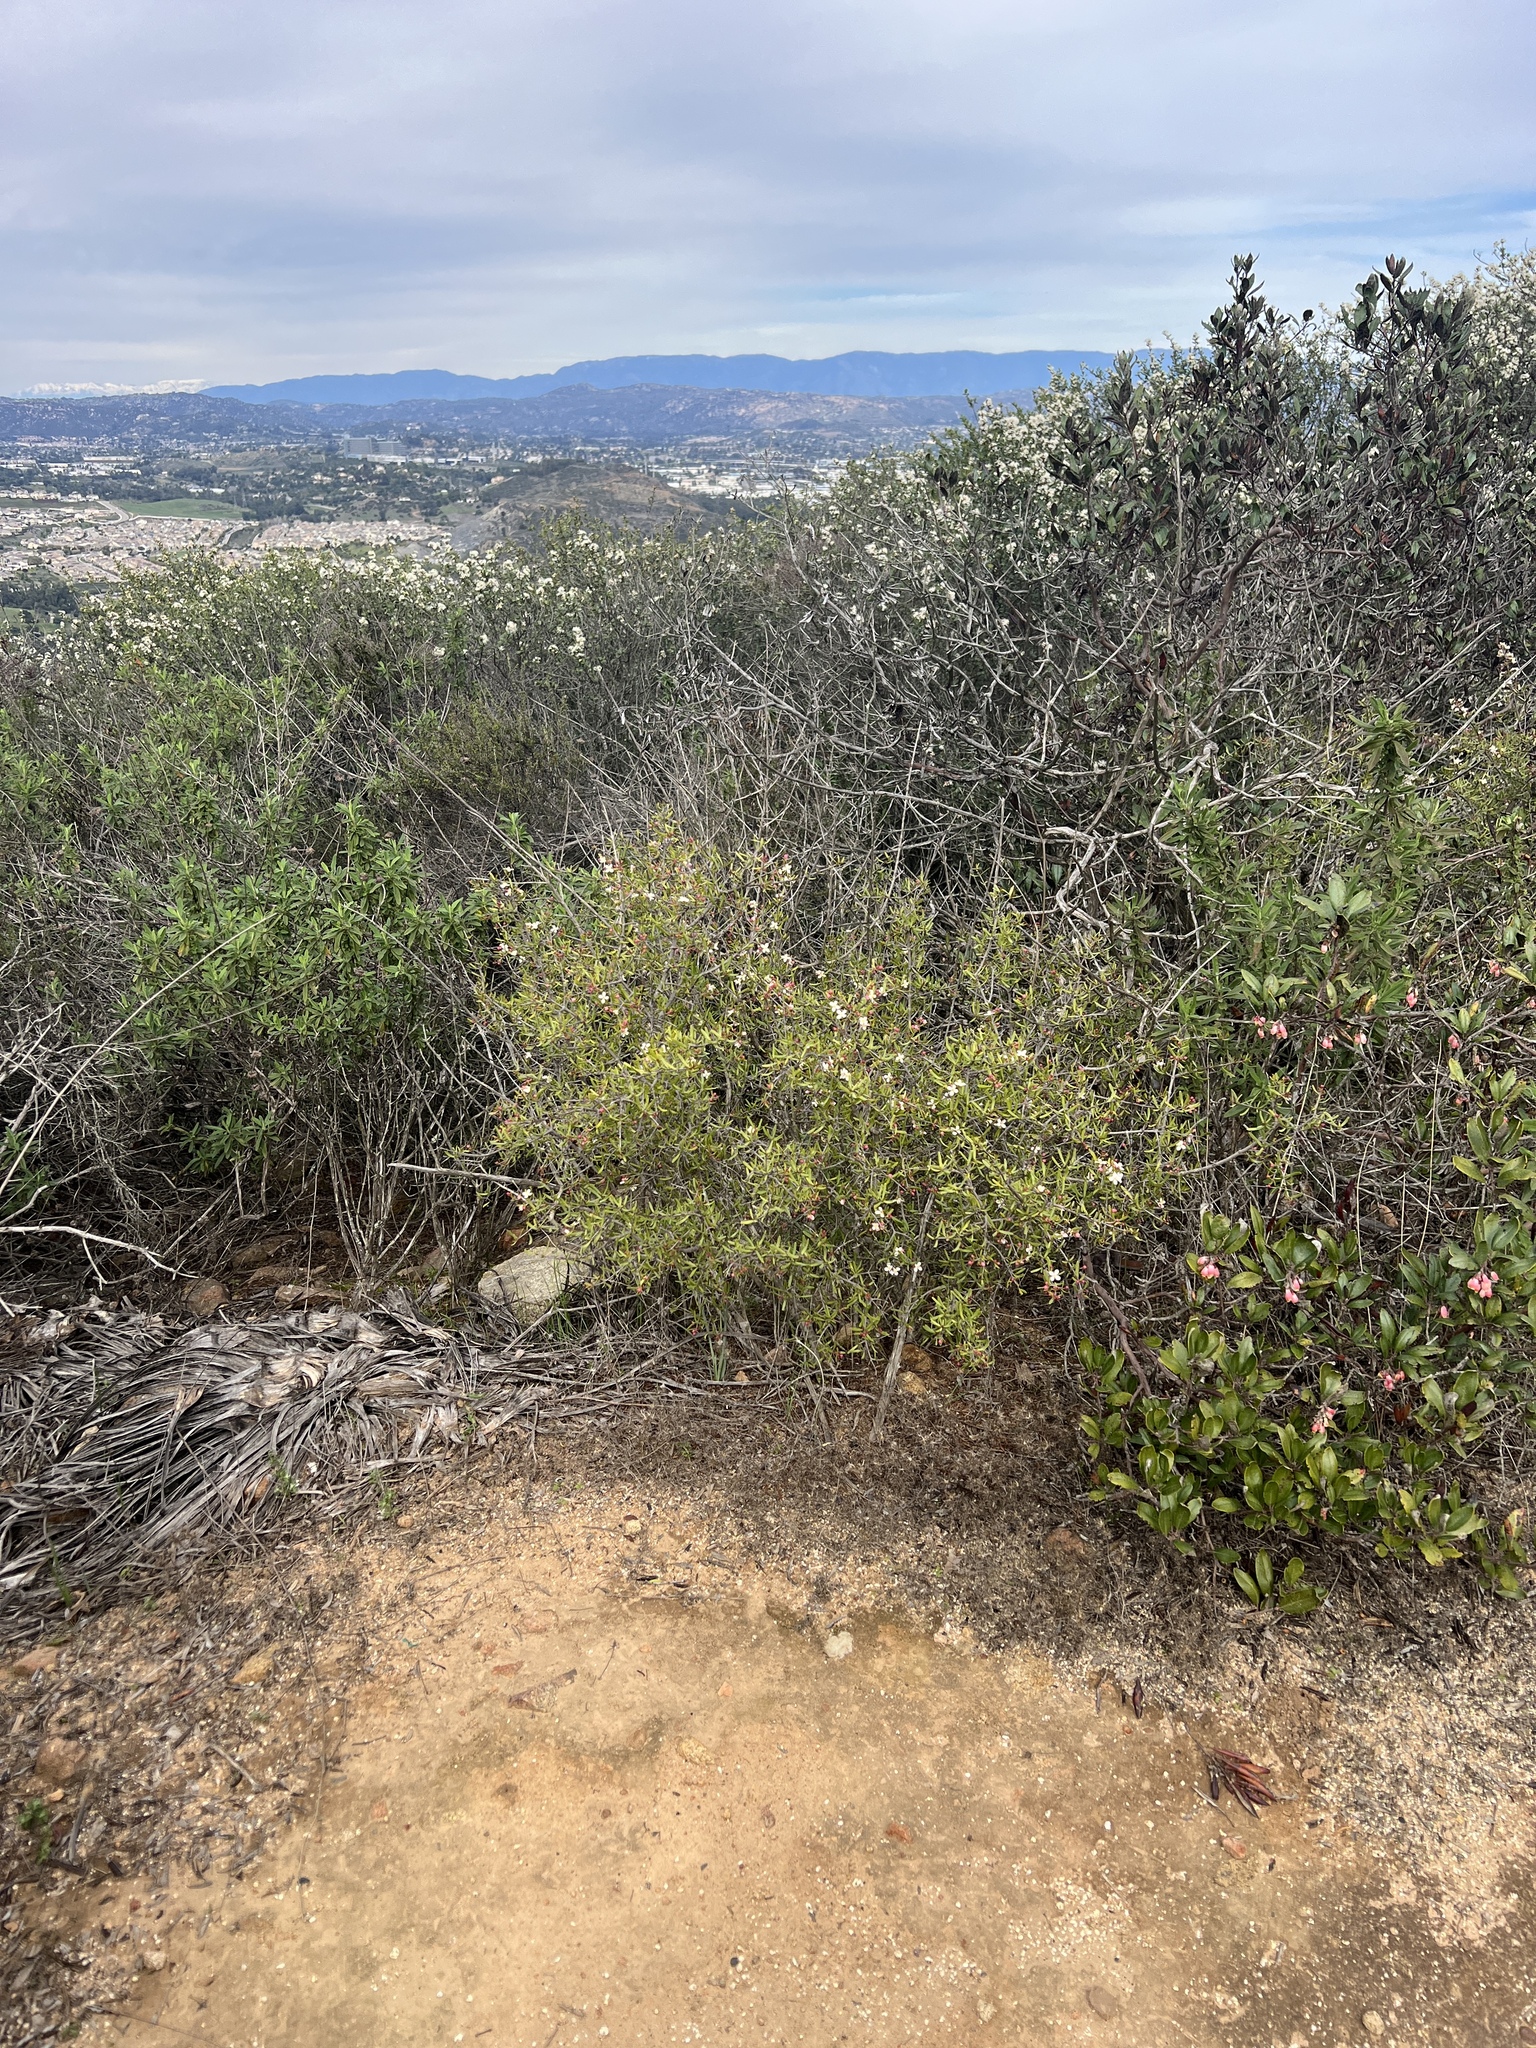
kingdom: Plantae
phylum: Tracheophyta
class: Magnoliopsida
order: Sapindales
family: Rutaceae
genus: Cneoridium
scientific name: Cneoridium dumosum
